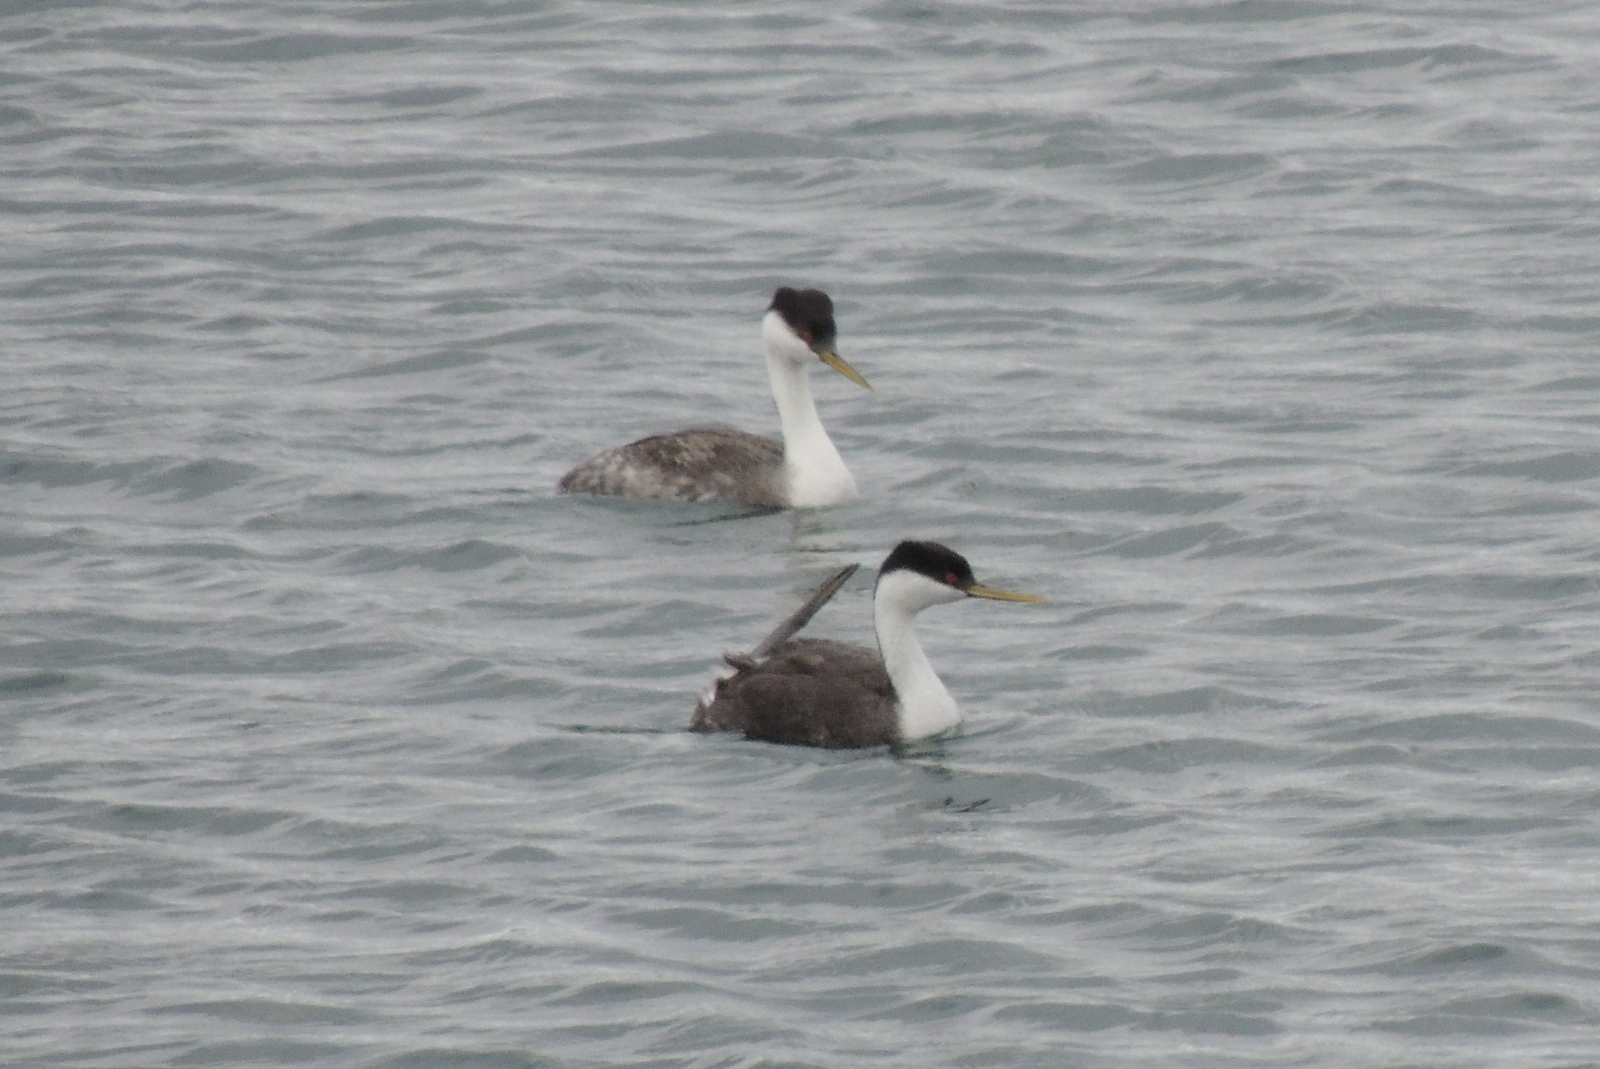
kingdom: Animalia
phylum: Chordata
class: Aves
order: Podicipediformes
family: Podicipedidae
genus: Aechmophorus
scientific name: Aechmophorus occidentalis
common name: Western grebe
